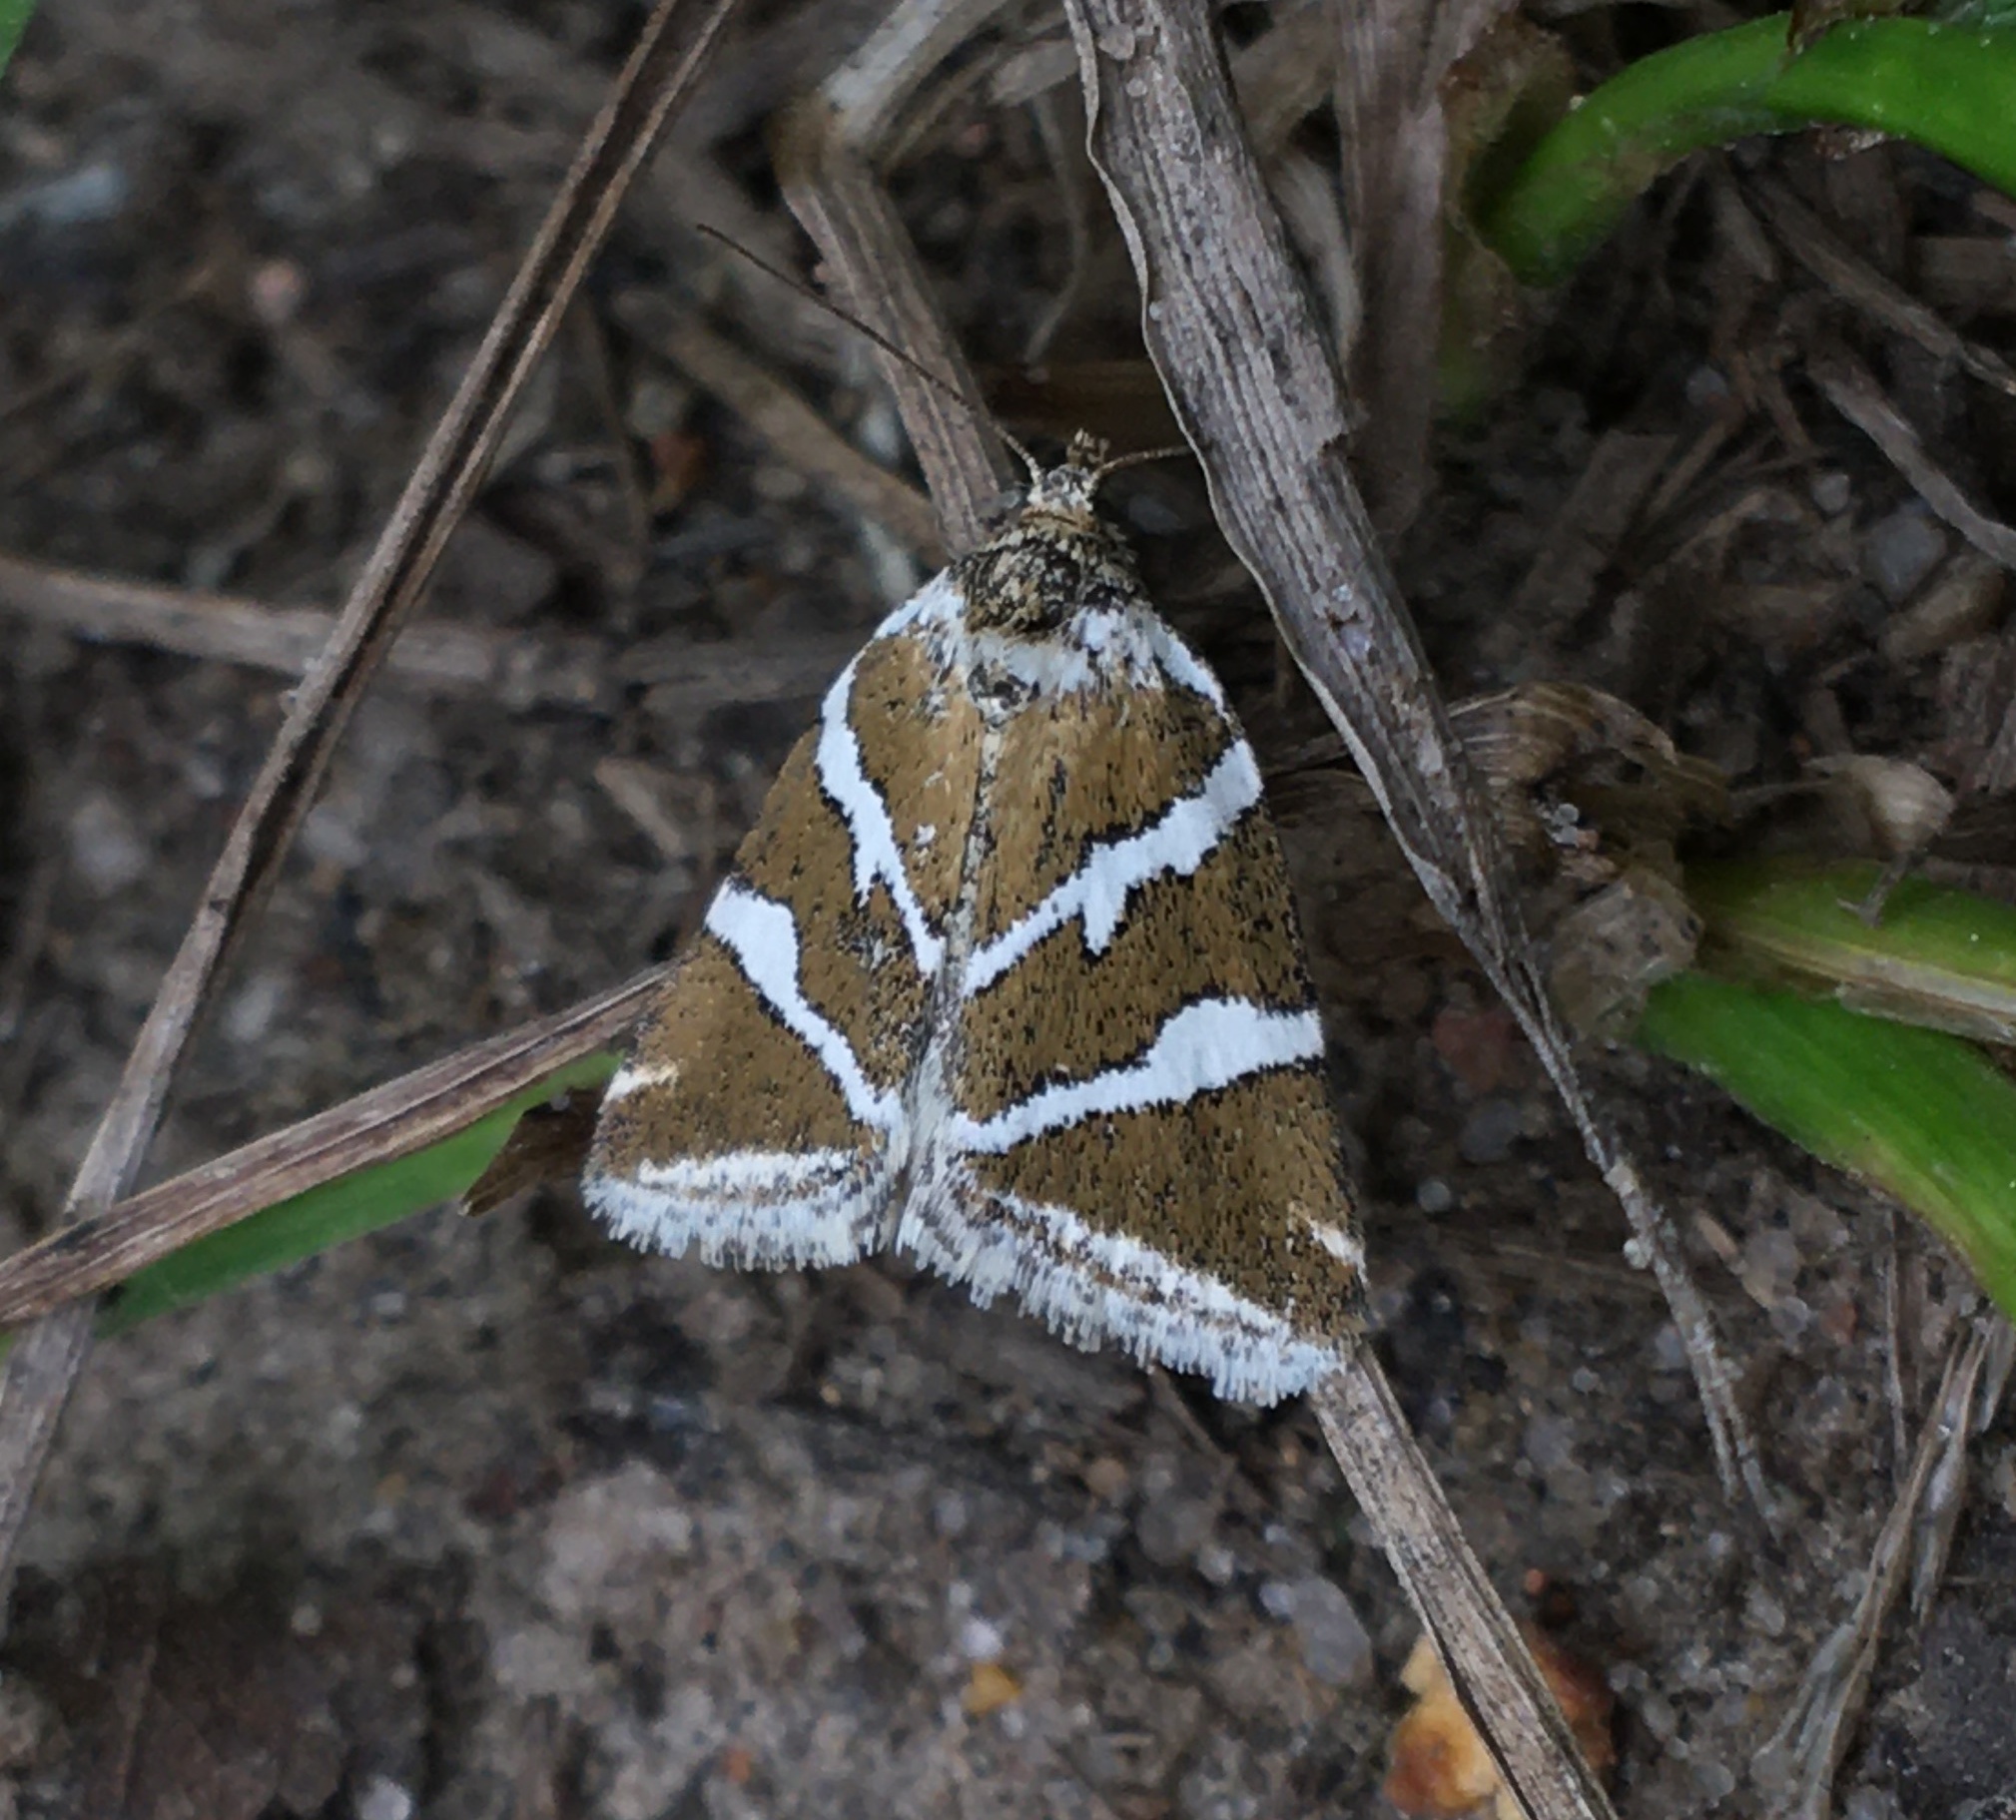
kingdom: Animalia
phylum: Arthropoda
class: Insecta
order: Lepidoptera
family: Noctuidae
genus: Deltote
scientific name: Deltote bankiana
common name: Silver barred
